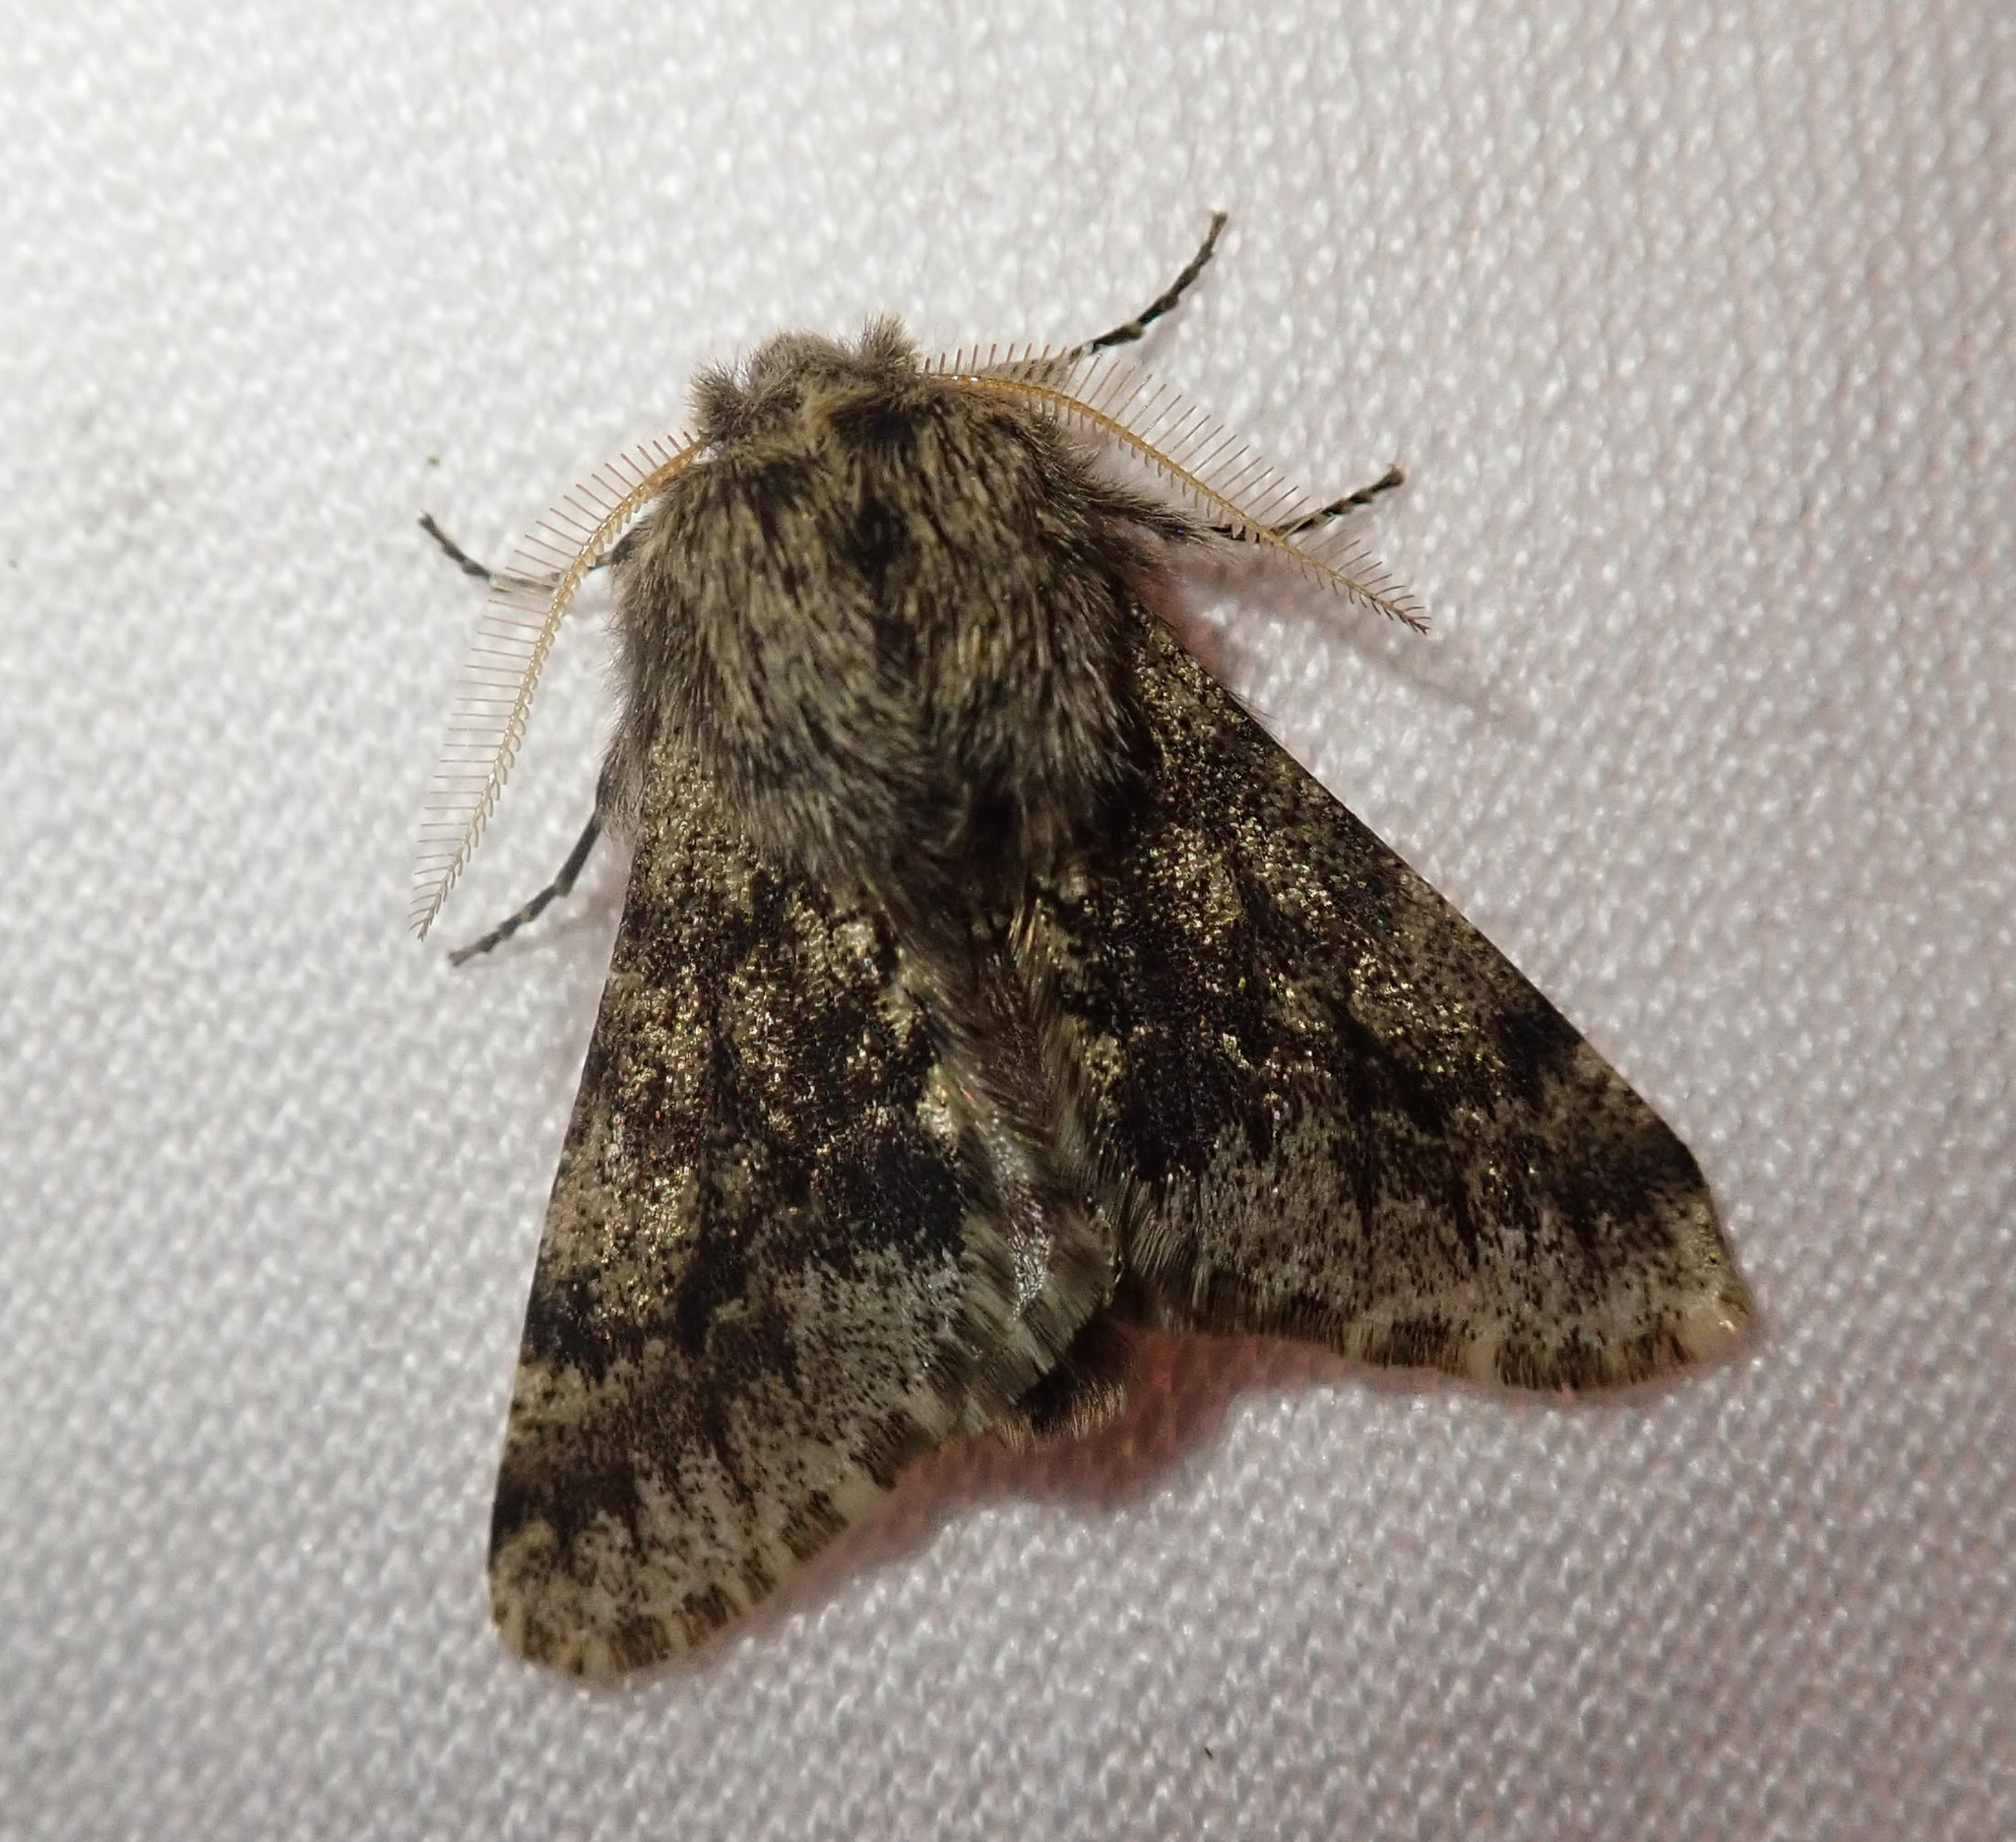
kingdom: Animalia
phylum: Arthropoda
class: Insecta
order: Lepidoptera
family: Geometridae
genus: Apocheima
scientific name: Apocheima hispidaria
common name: Small brindled beauty
